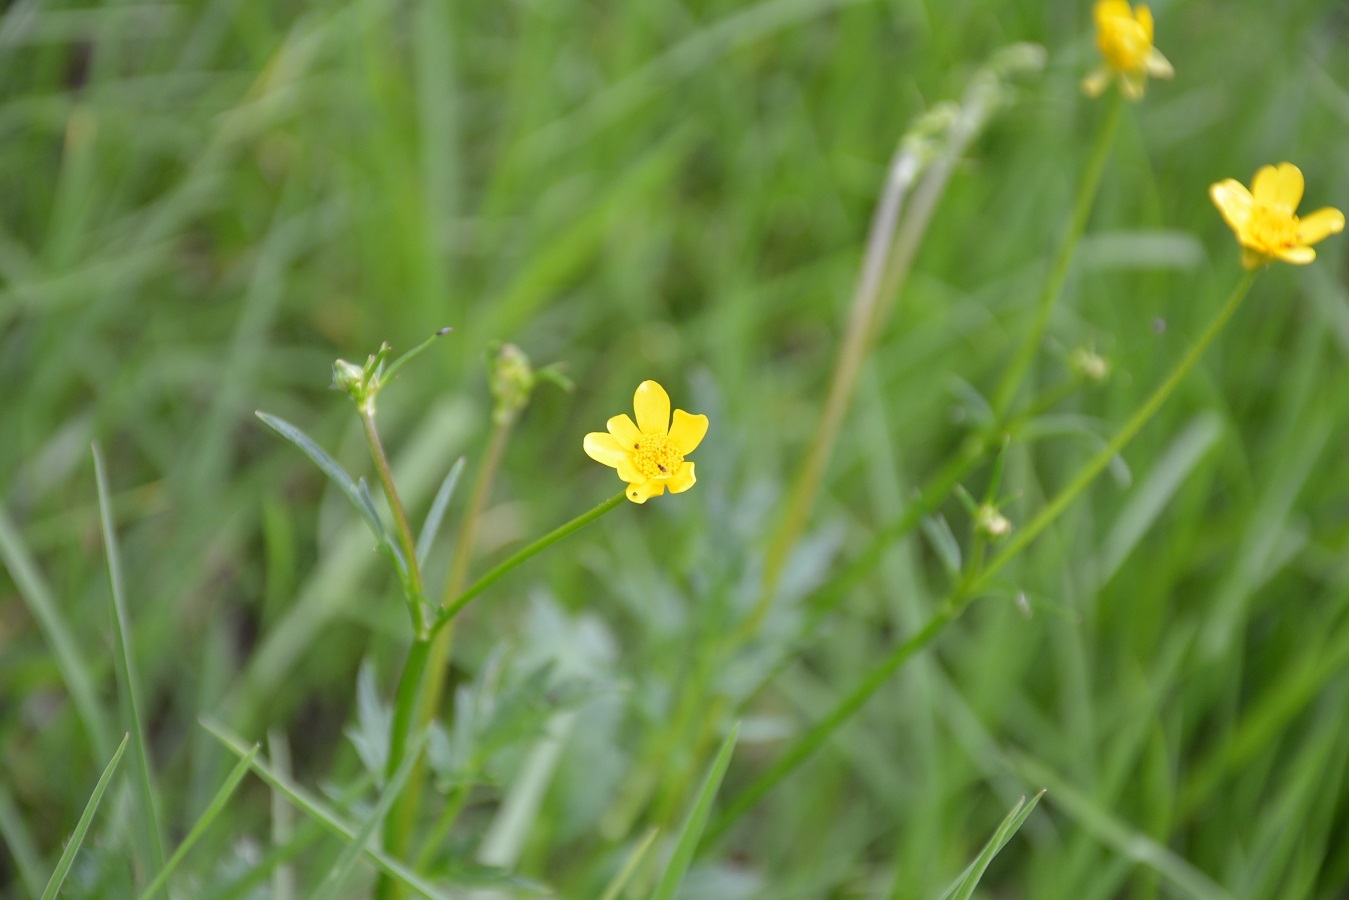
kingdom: Plantae
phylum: Tracheophyta
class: Magnoliopsida
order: Ranunculales
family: Ranunculaceae
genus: Ranunculus
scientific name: Ranunculus petiolaris
